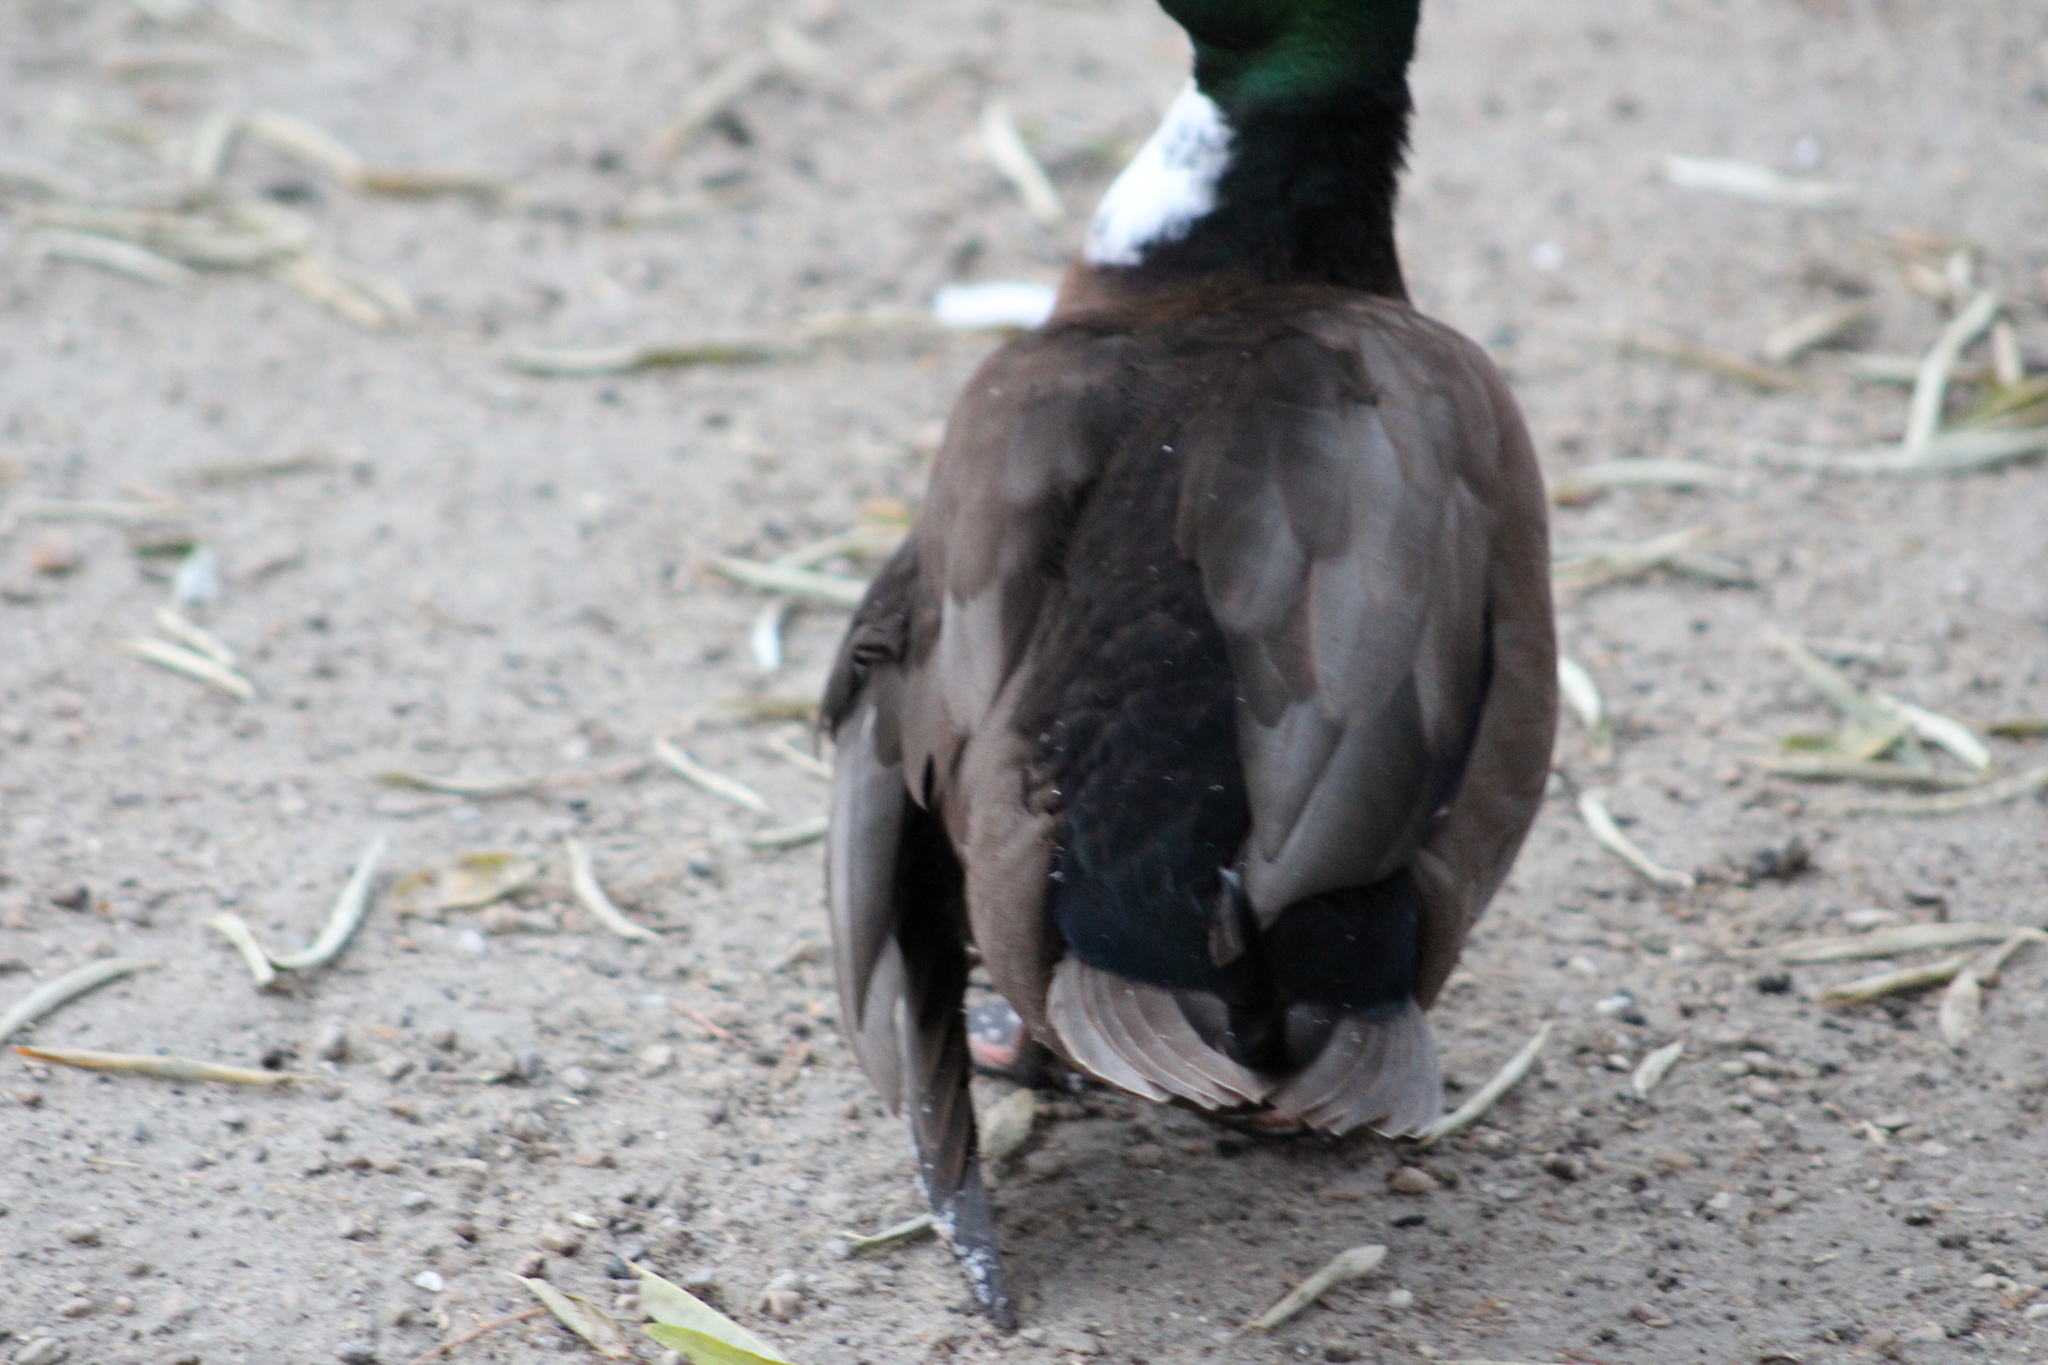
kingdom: Animalia
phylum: Chordata
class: Aves
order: Anseriformes
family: Anatidae
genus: Anas
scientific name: Anas platyrhynchos
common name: Mallard
